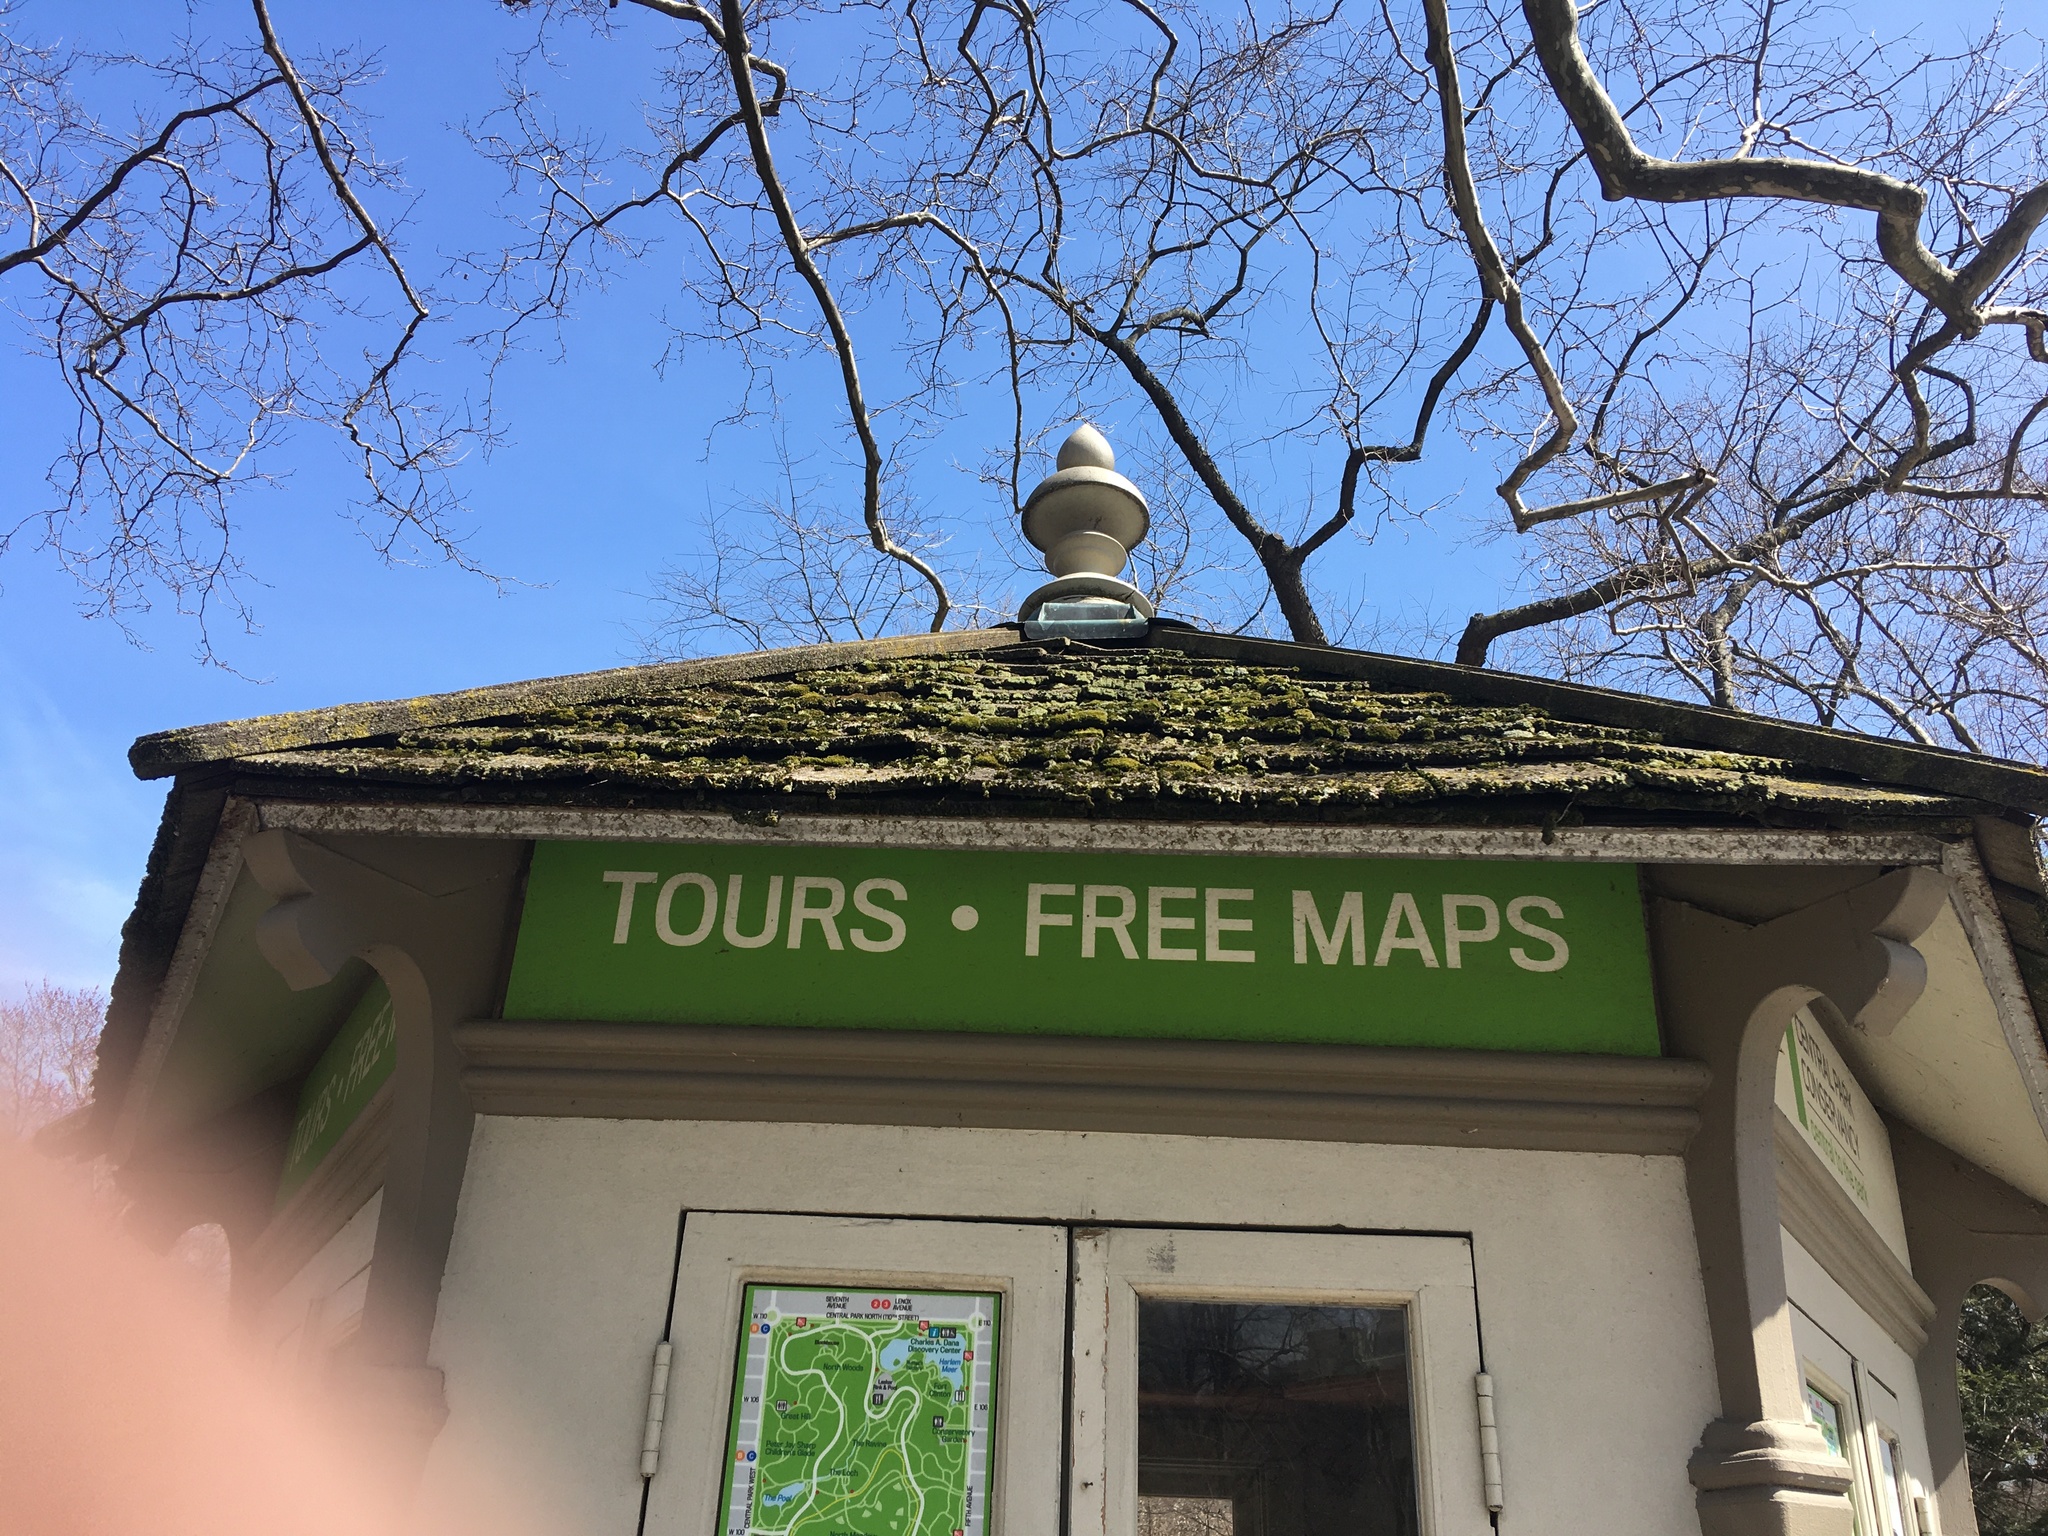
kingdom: Plantae
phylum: Bryophyta
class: Bryopsida
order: Bryales
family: Bryaceae
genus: Bryum
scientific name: Bryum argenteum
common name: Silver-moss
